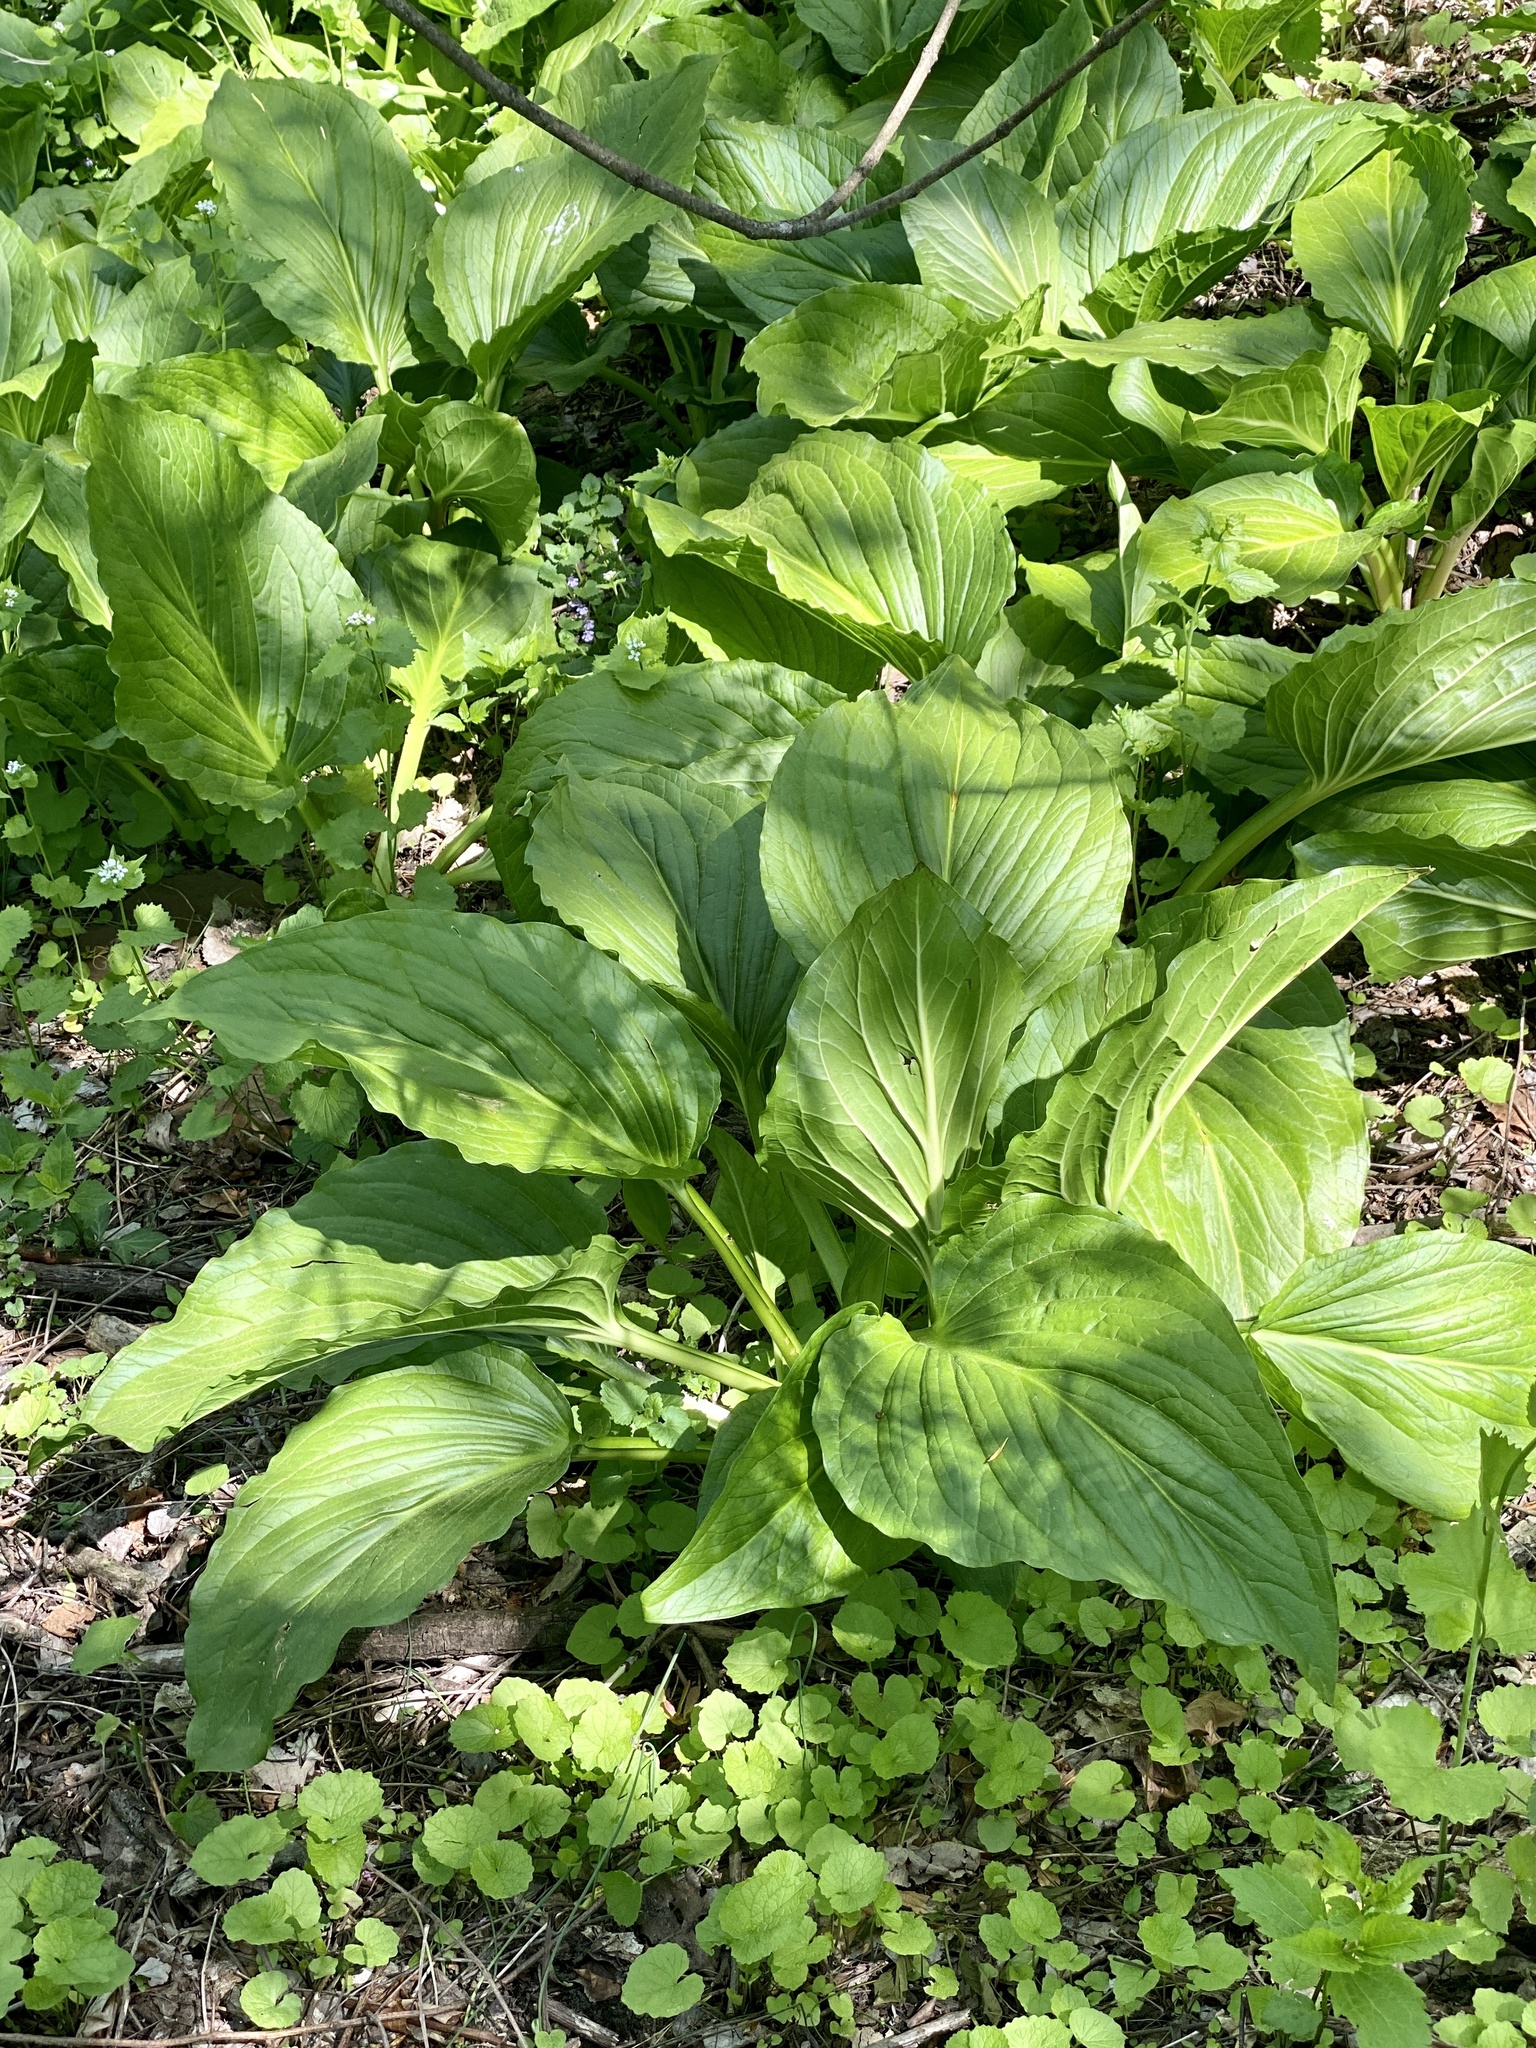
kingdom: Plantae
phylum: Tracheophyta
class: Liliopsida
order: Alismatales
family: Araceae
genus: Symplocarpus
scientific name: Symplocarpus foetidus
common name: Eastern skunk cabbage
